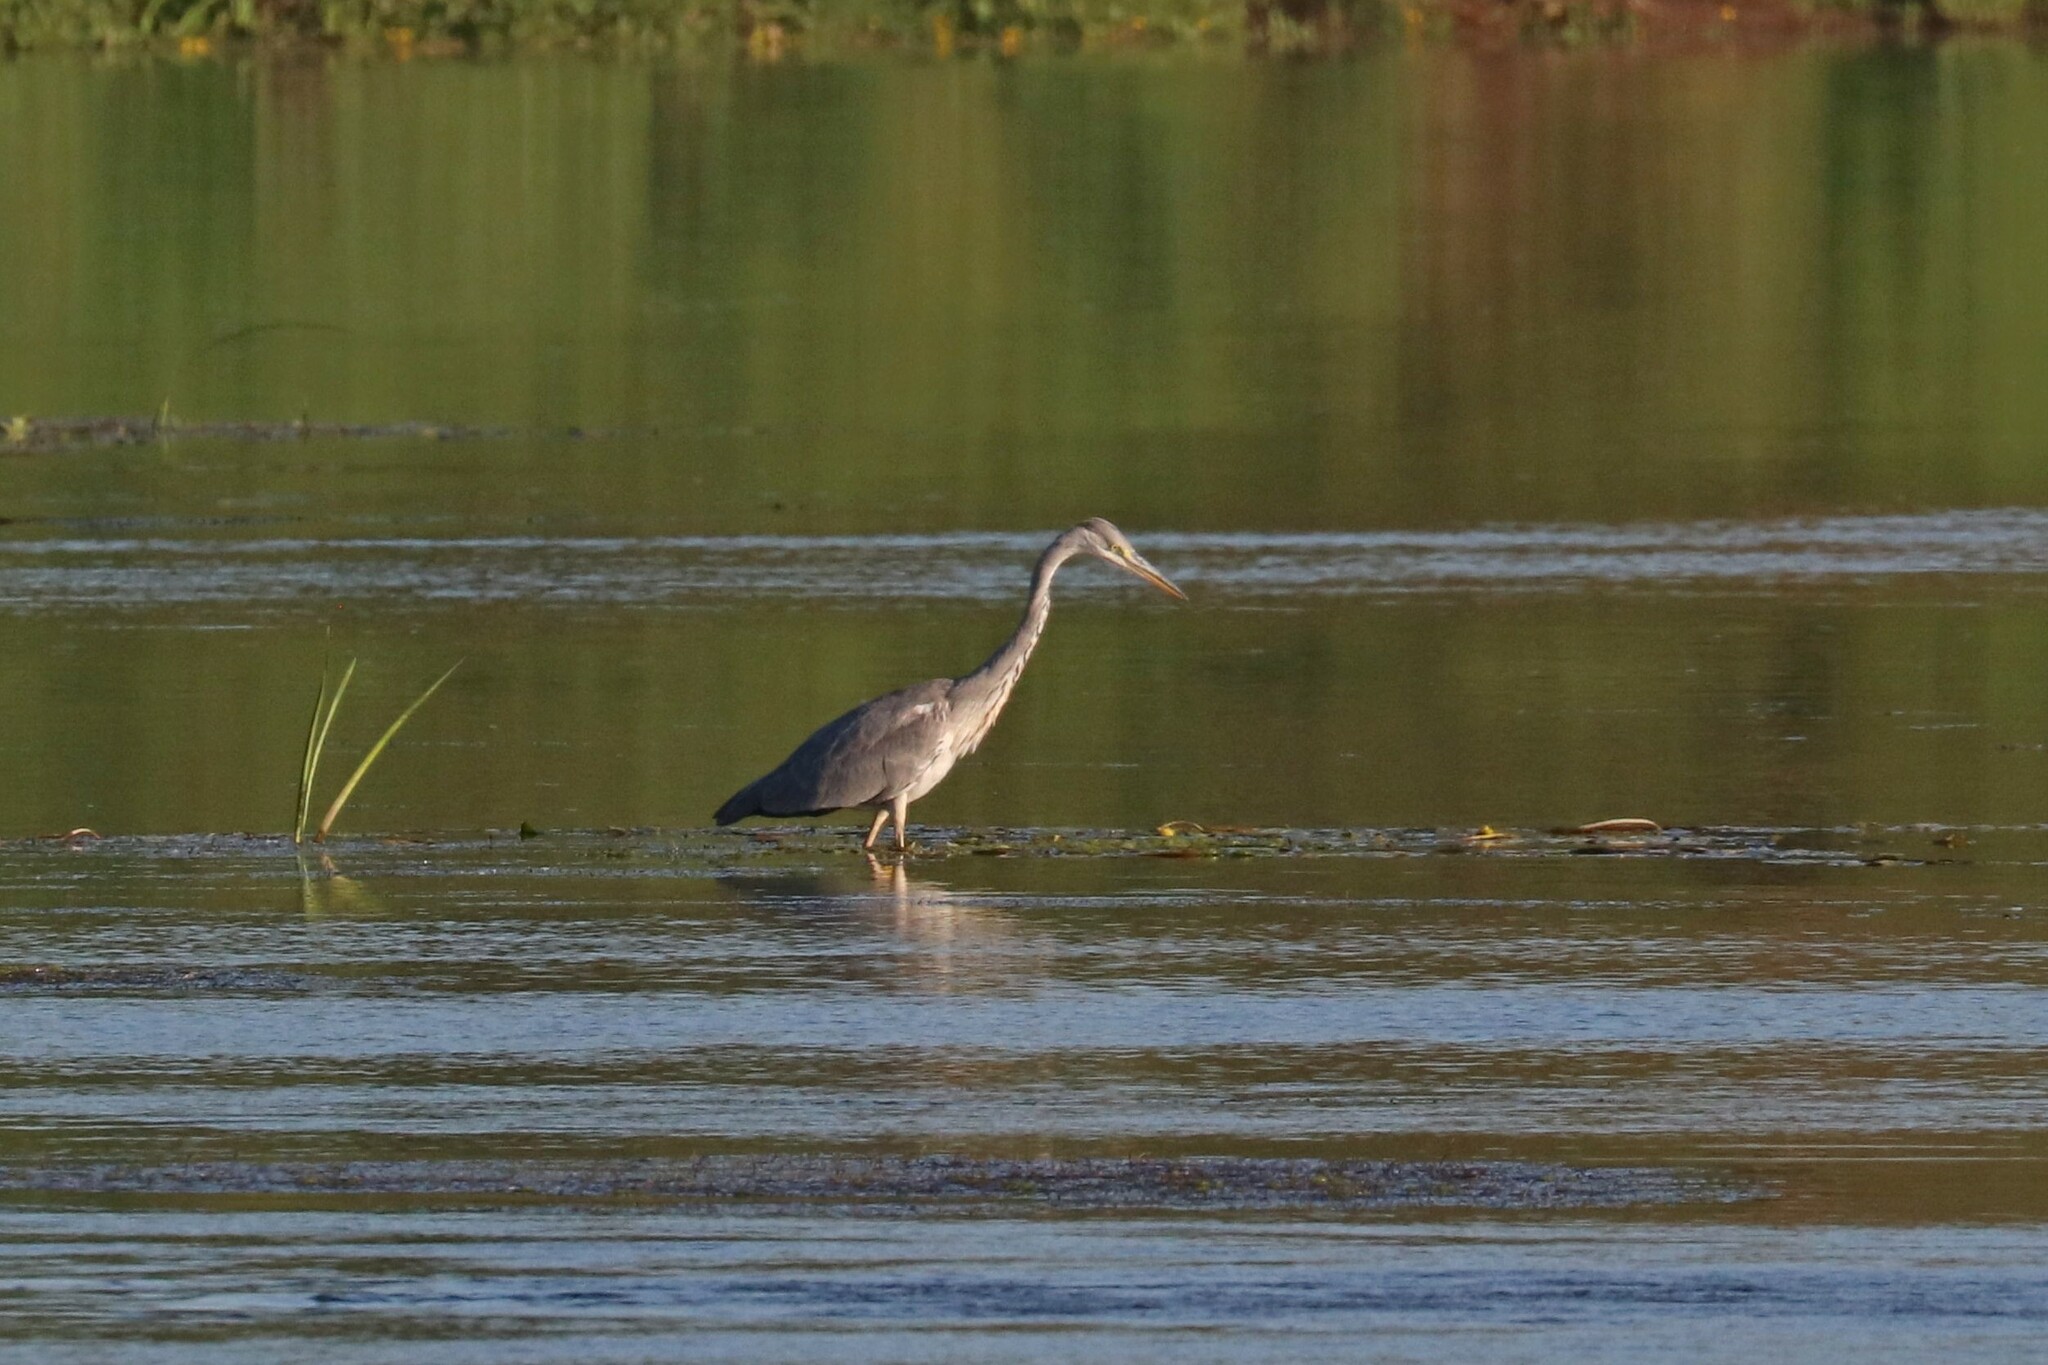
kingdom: Animalia
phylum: Chordata
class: Aves
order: Pelecaniformes
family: Ardeidae
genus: Ardea
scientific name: Ardea cinerea
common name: Grey heron
